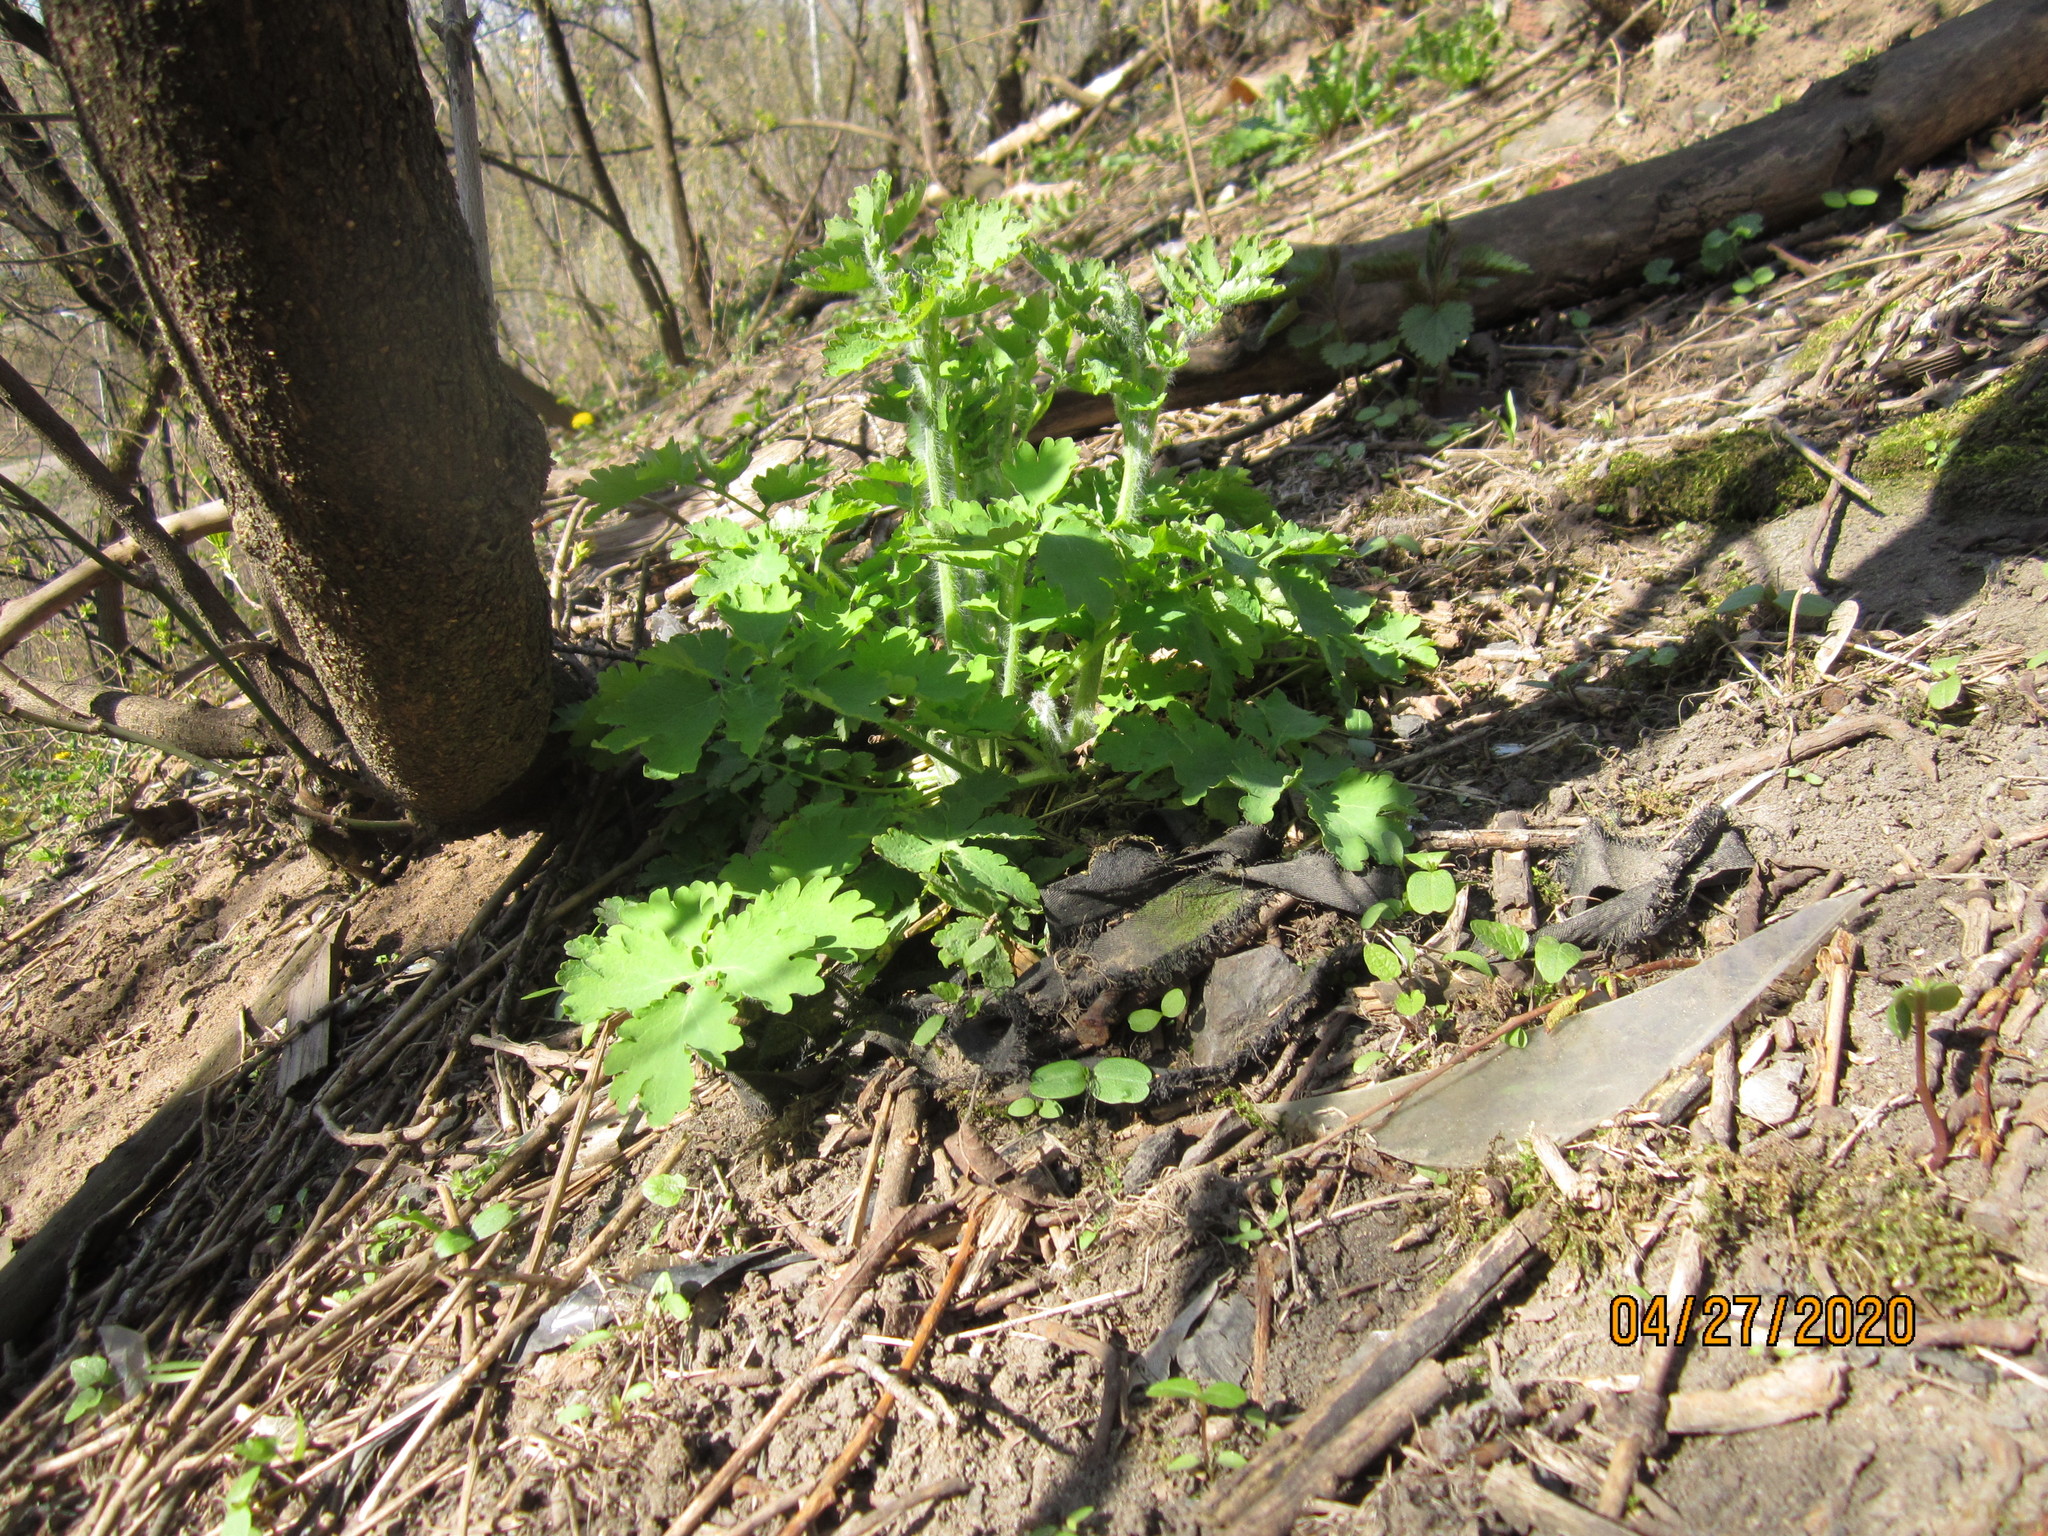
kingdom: Plantae
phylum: Tracheophyta
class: Magnoliopsida
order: Ranunculales
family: Papaveraceae
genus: Chelidonium
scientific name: Chelidonium majus
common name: Greater celandine
